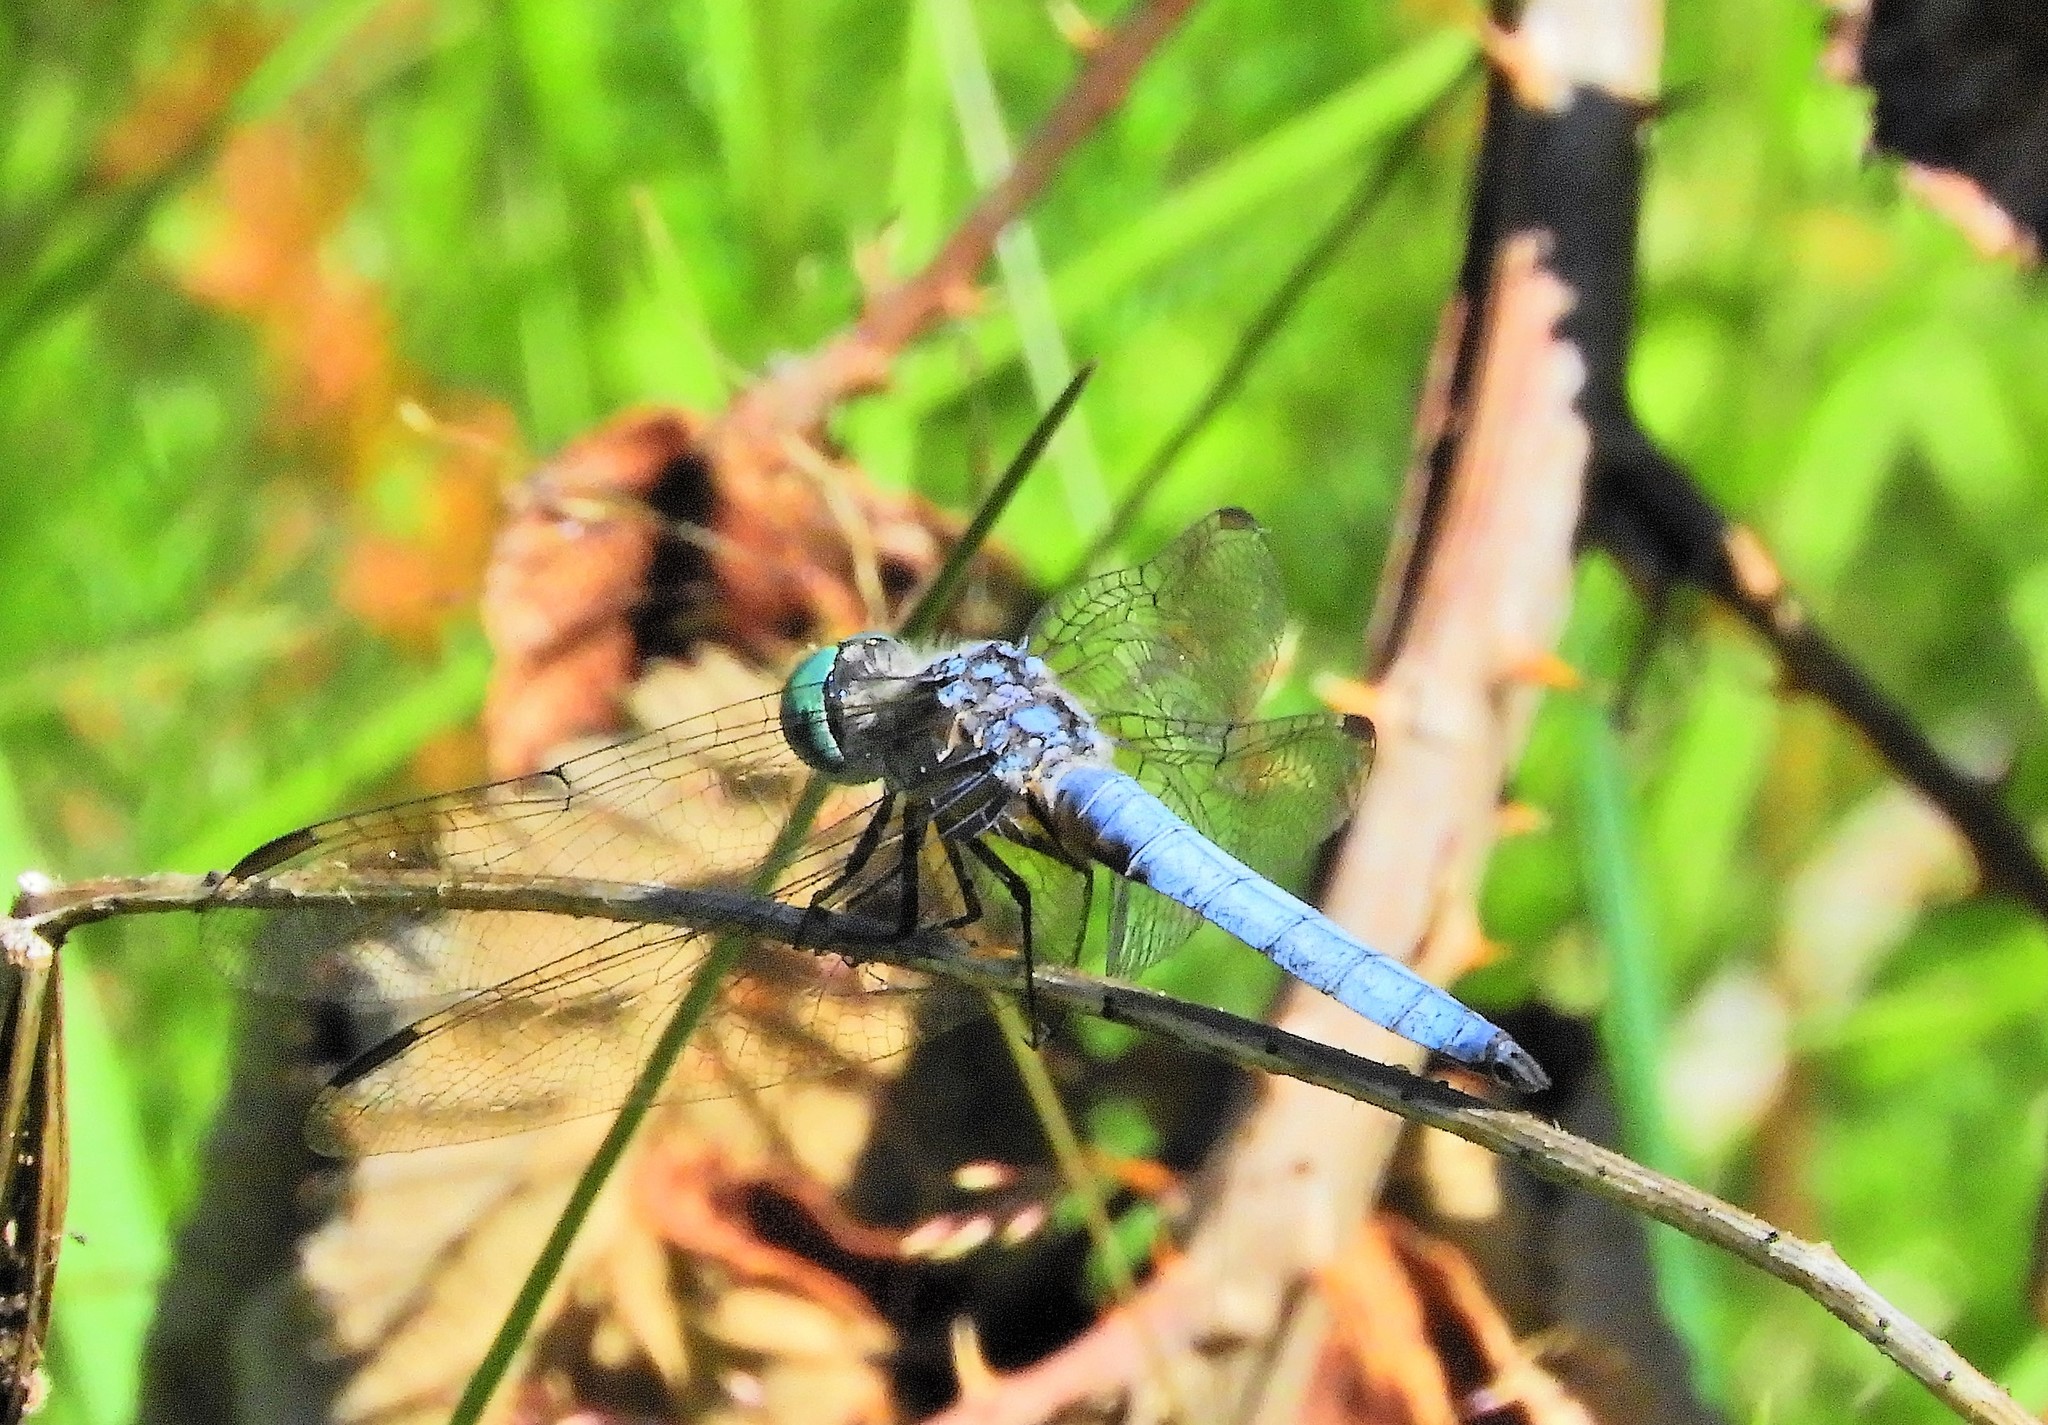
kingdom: Animalia
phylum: Arthropoda
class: Insecta
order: Odonata
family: Libellulidae
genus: Pachydiplax
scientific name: Pachydiplax longipennis
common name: Blue dasher
